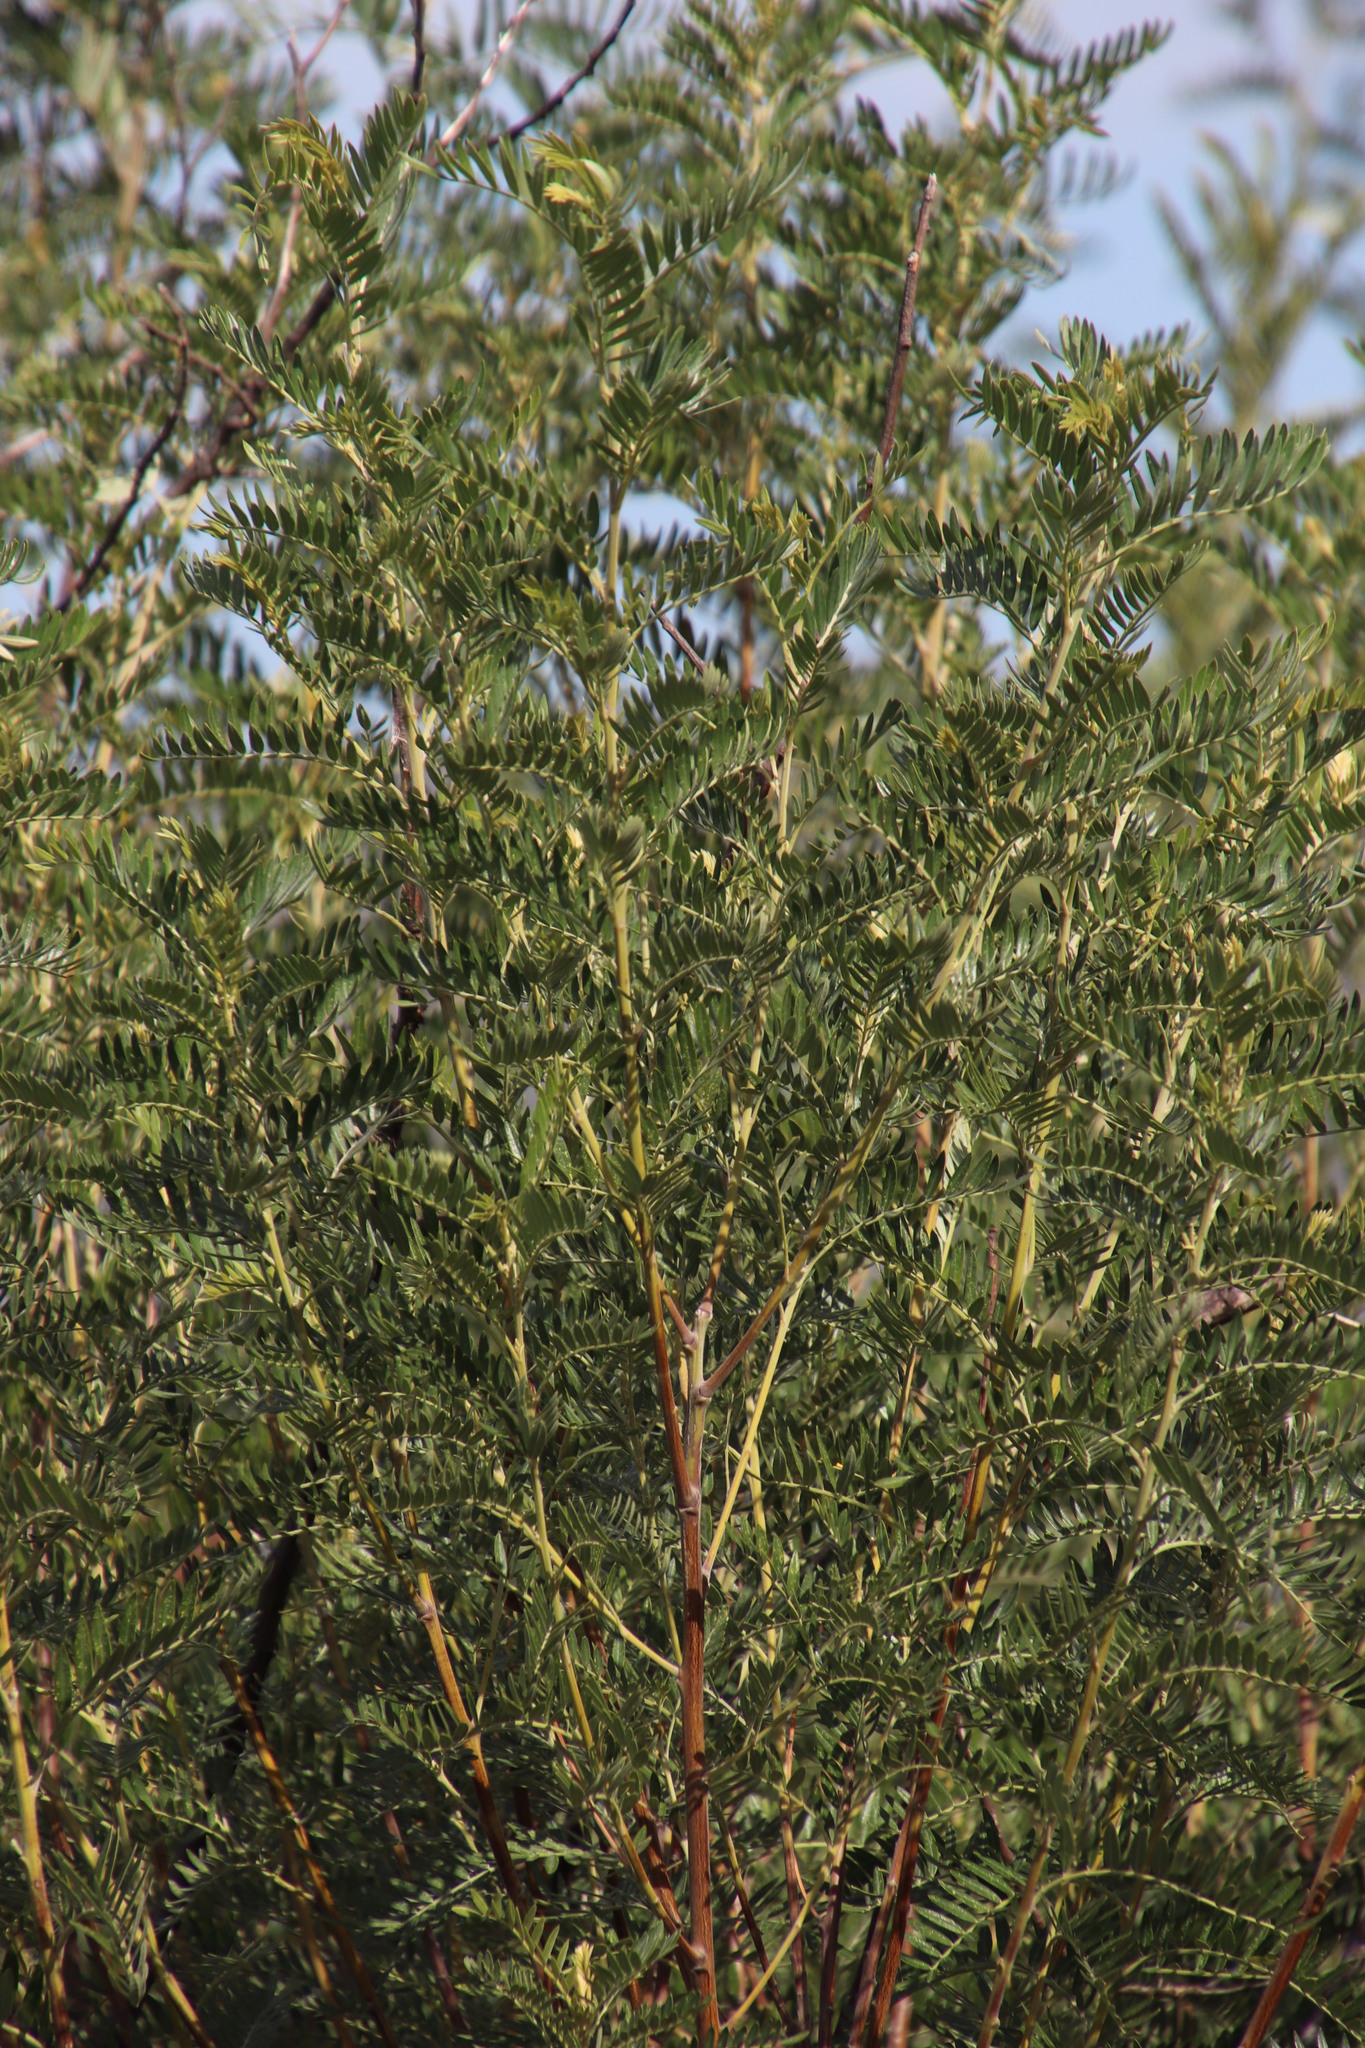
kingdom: Plantae
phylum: Tracheophyta
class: Magnoliopsida
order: Fabales
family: Fabaceae
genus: Virgilia
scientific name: Virgilia oroboides
